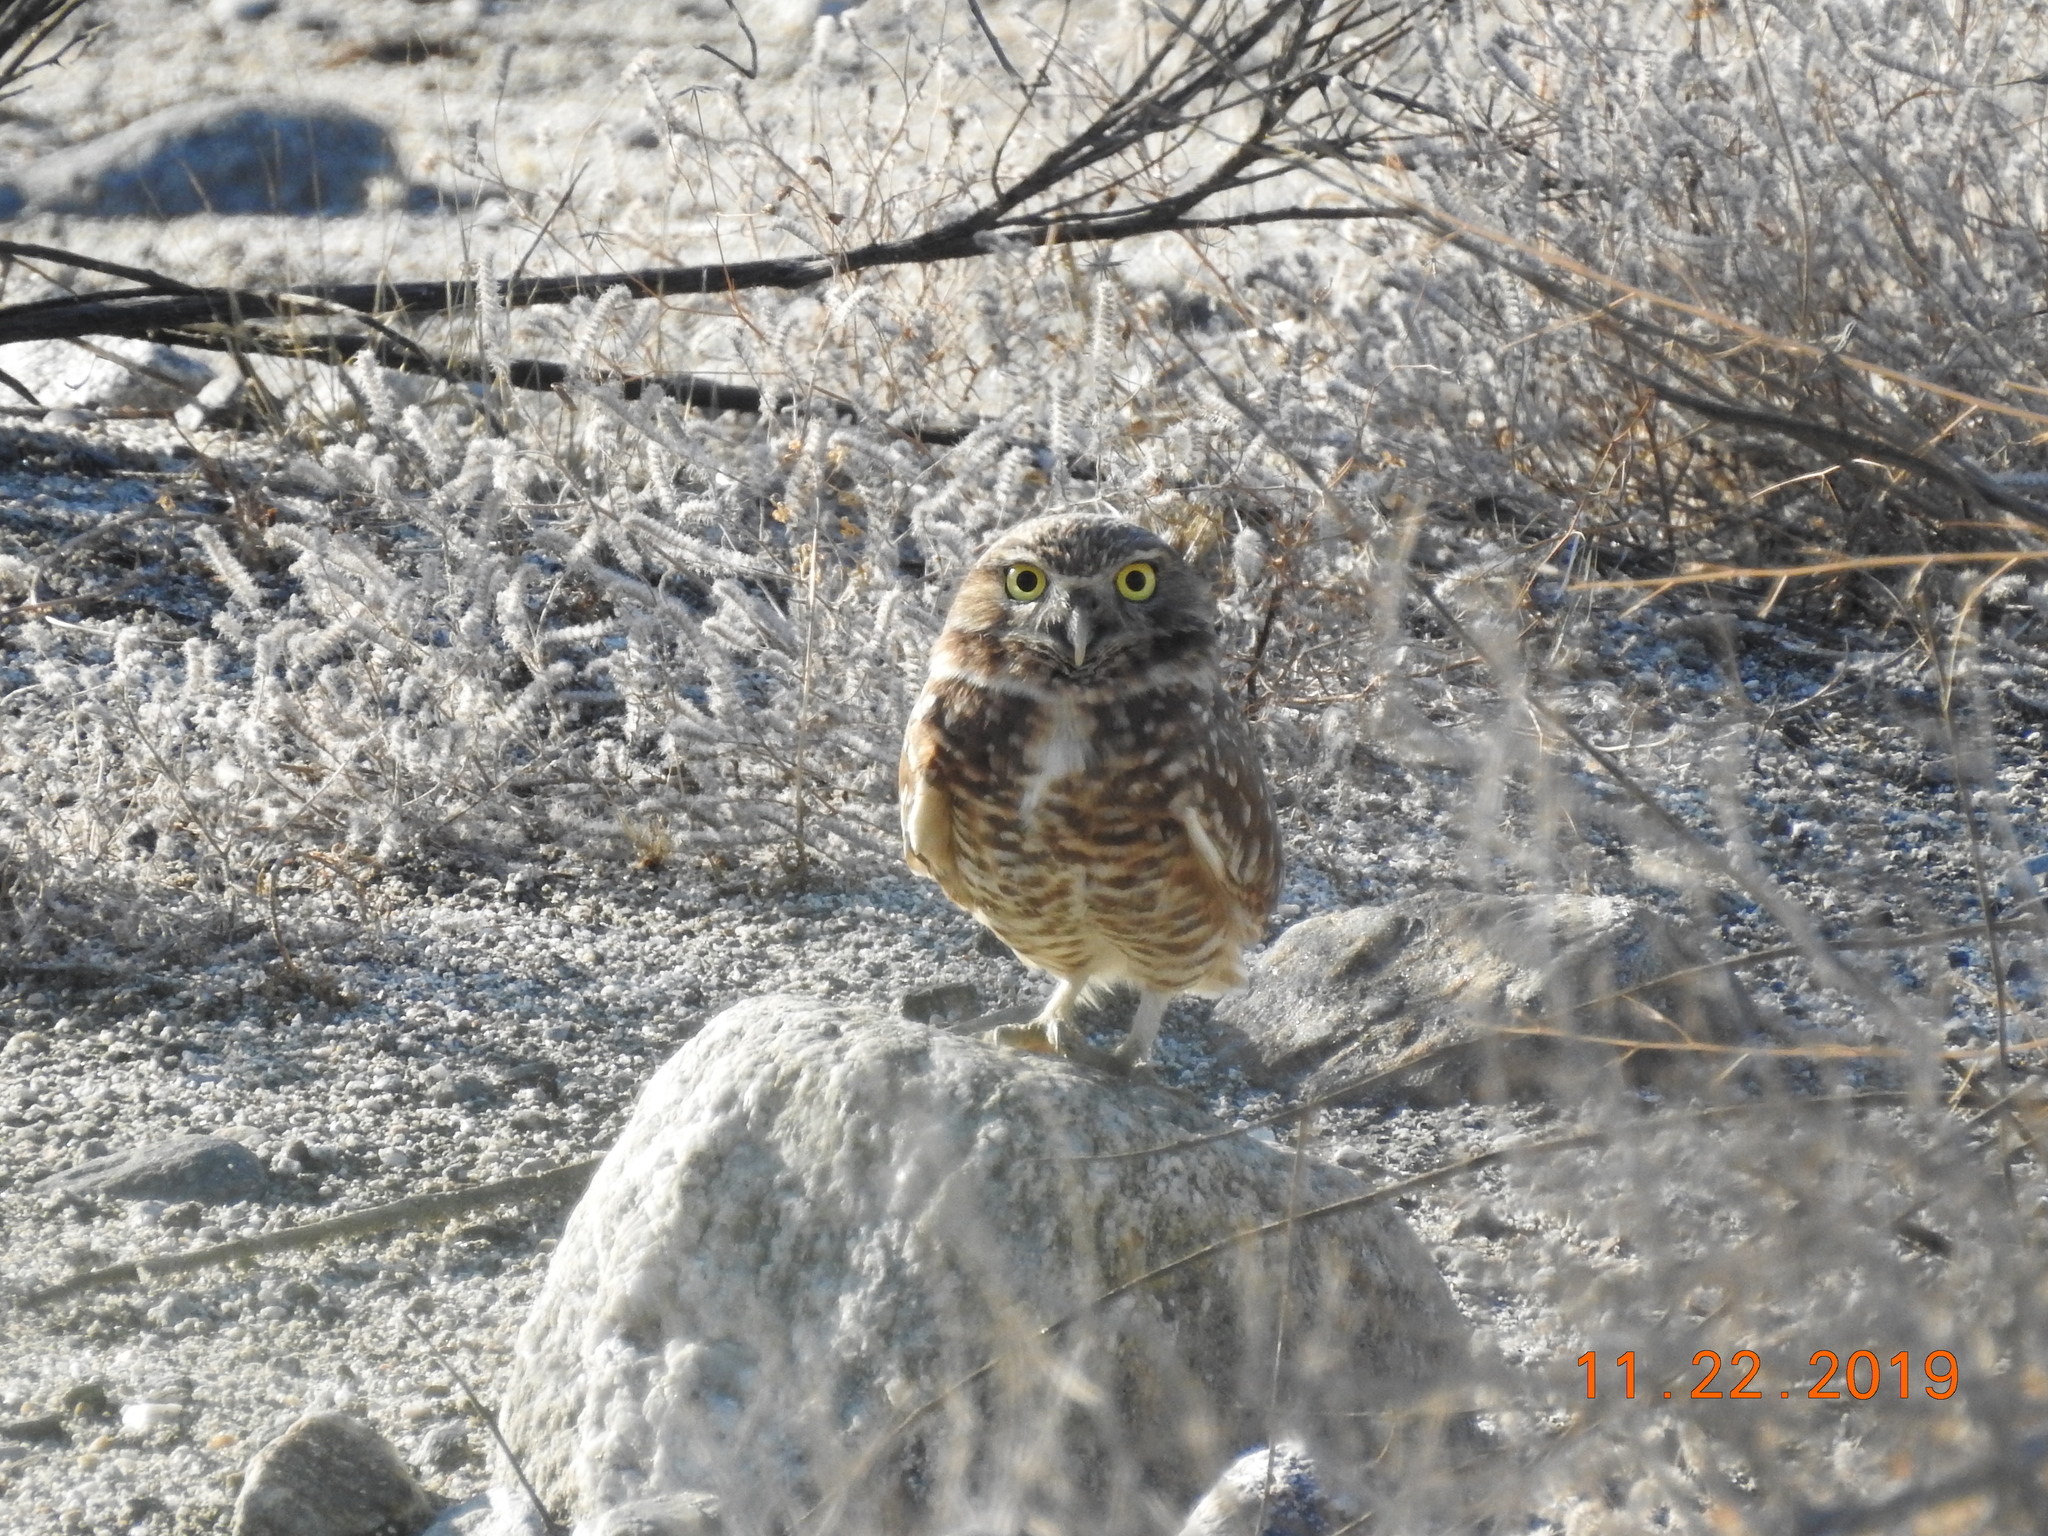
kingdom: Animalia
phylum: Chordata
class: Aves
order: Strigiformes
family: Strigidae
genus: Athene
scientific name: Athene cunicularia
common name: Burrowing owl
